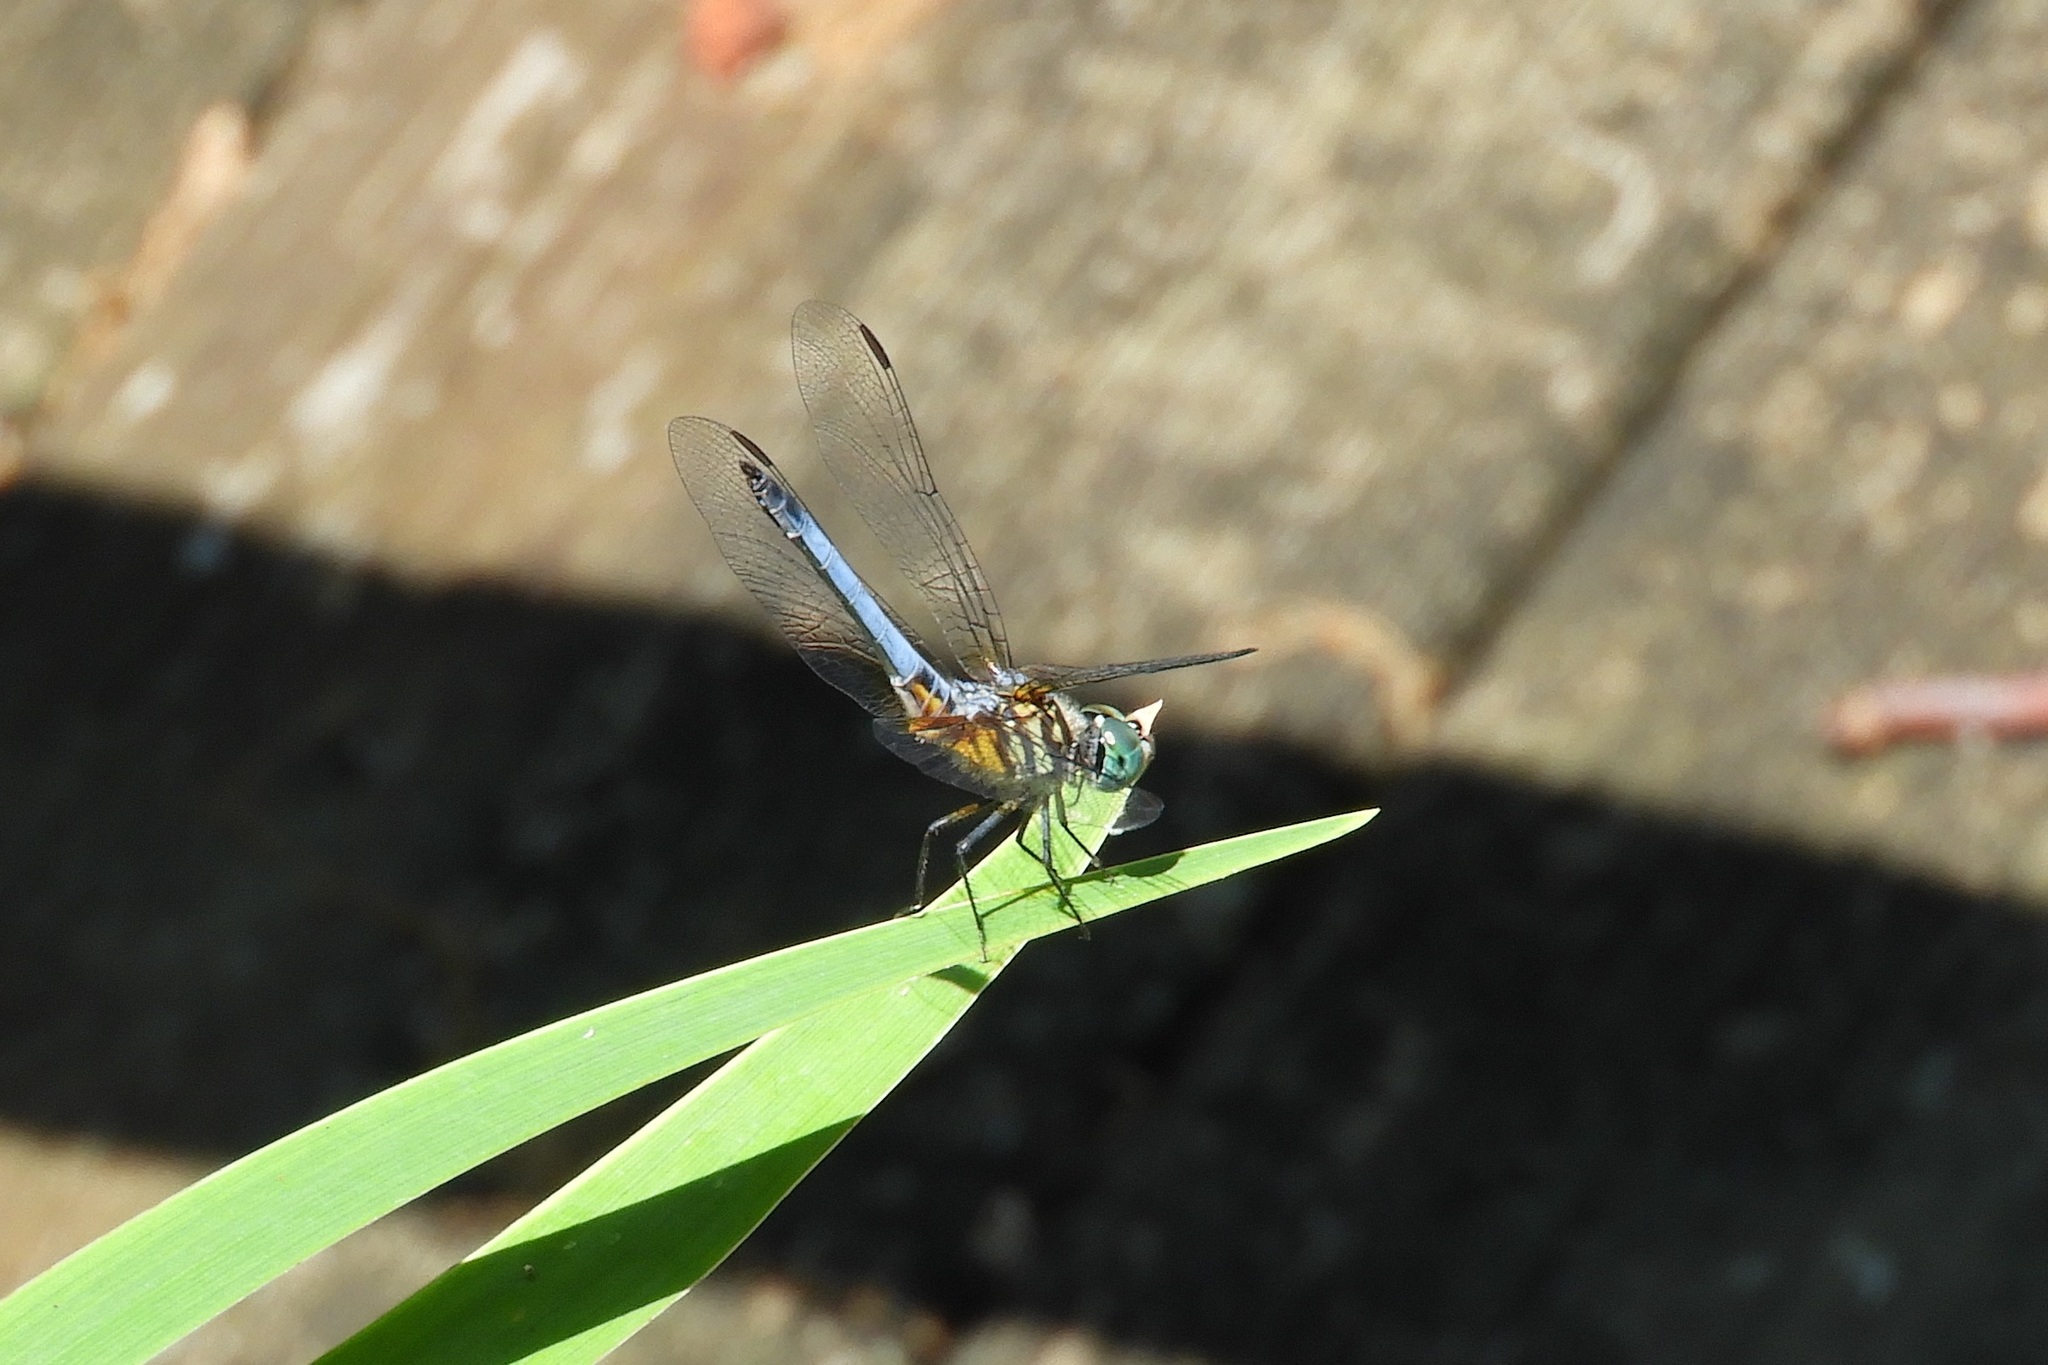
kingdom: Animalia
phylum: Arthropoda
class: Insecta
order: Odonata
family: Libellulidae
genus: Pachydiplax
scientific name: Pachydiplax longipennis
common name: Blue dasher
